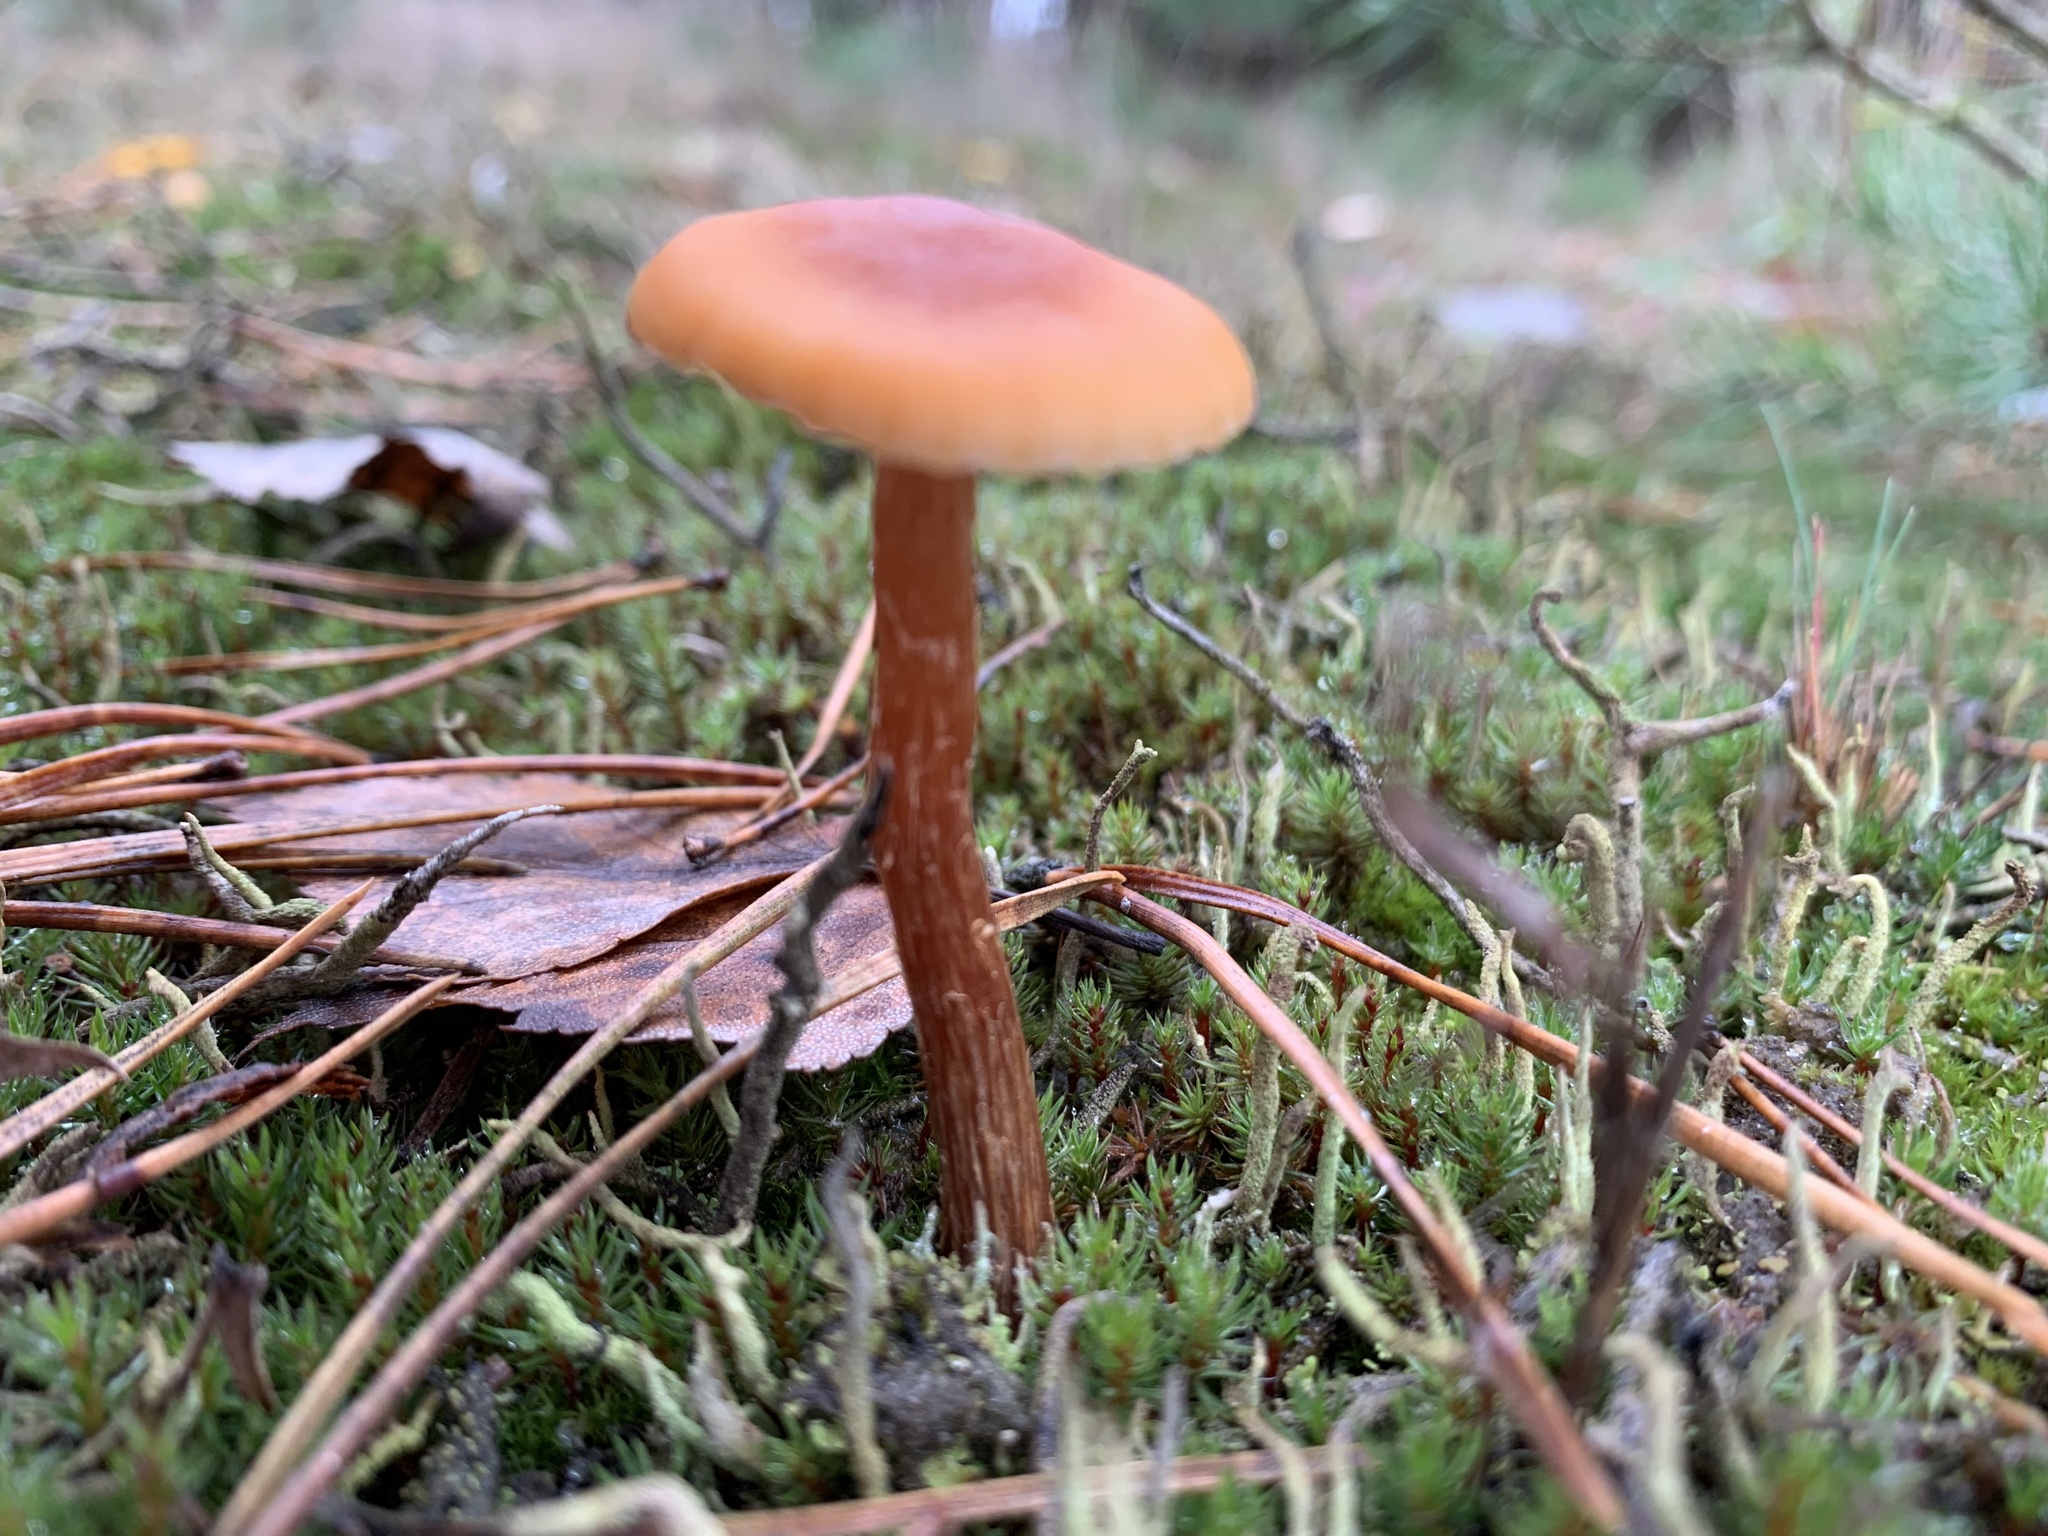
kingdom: Fungi
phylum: Basidiomycota
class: Agaricomycetes
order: Agaricales
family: Hydnangiaceae
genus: Laccaria
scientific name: Laccaria laccata
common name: Deceiver
